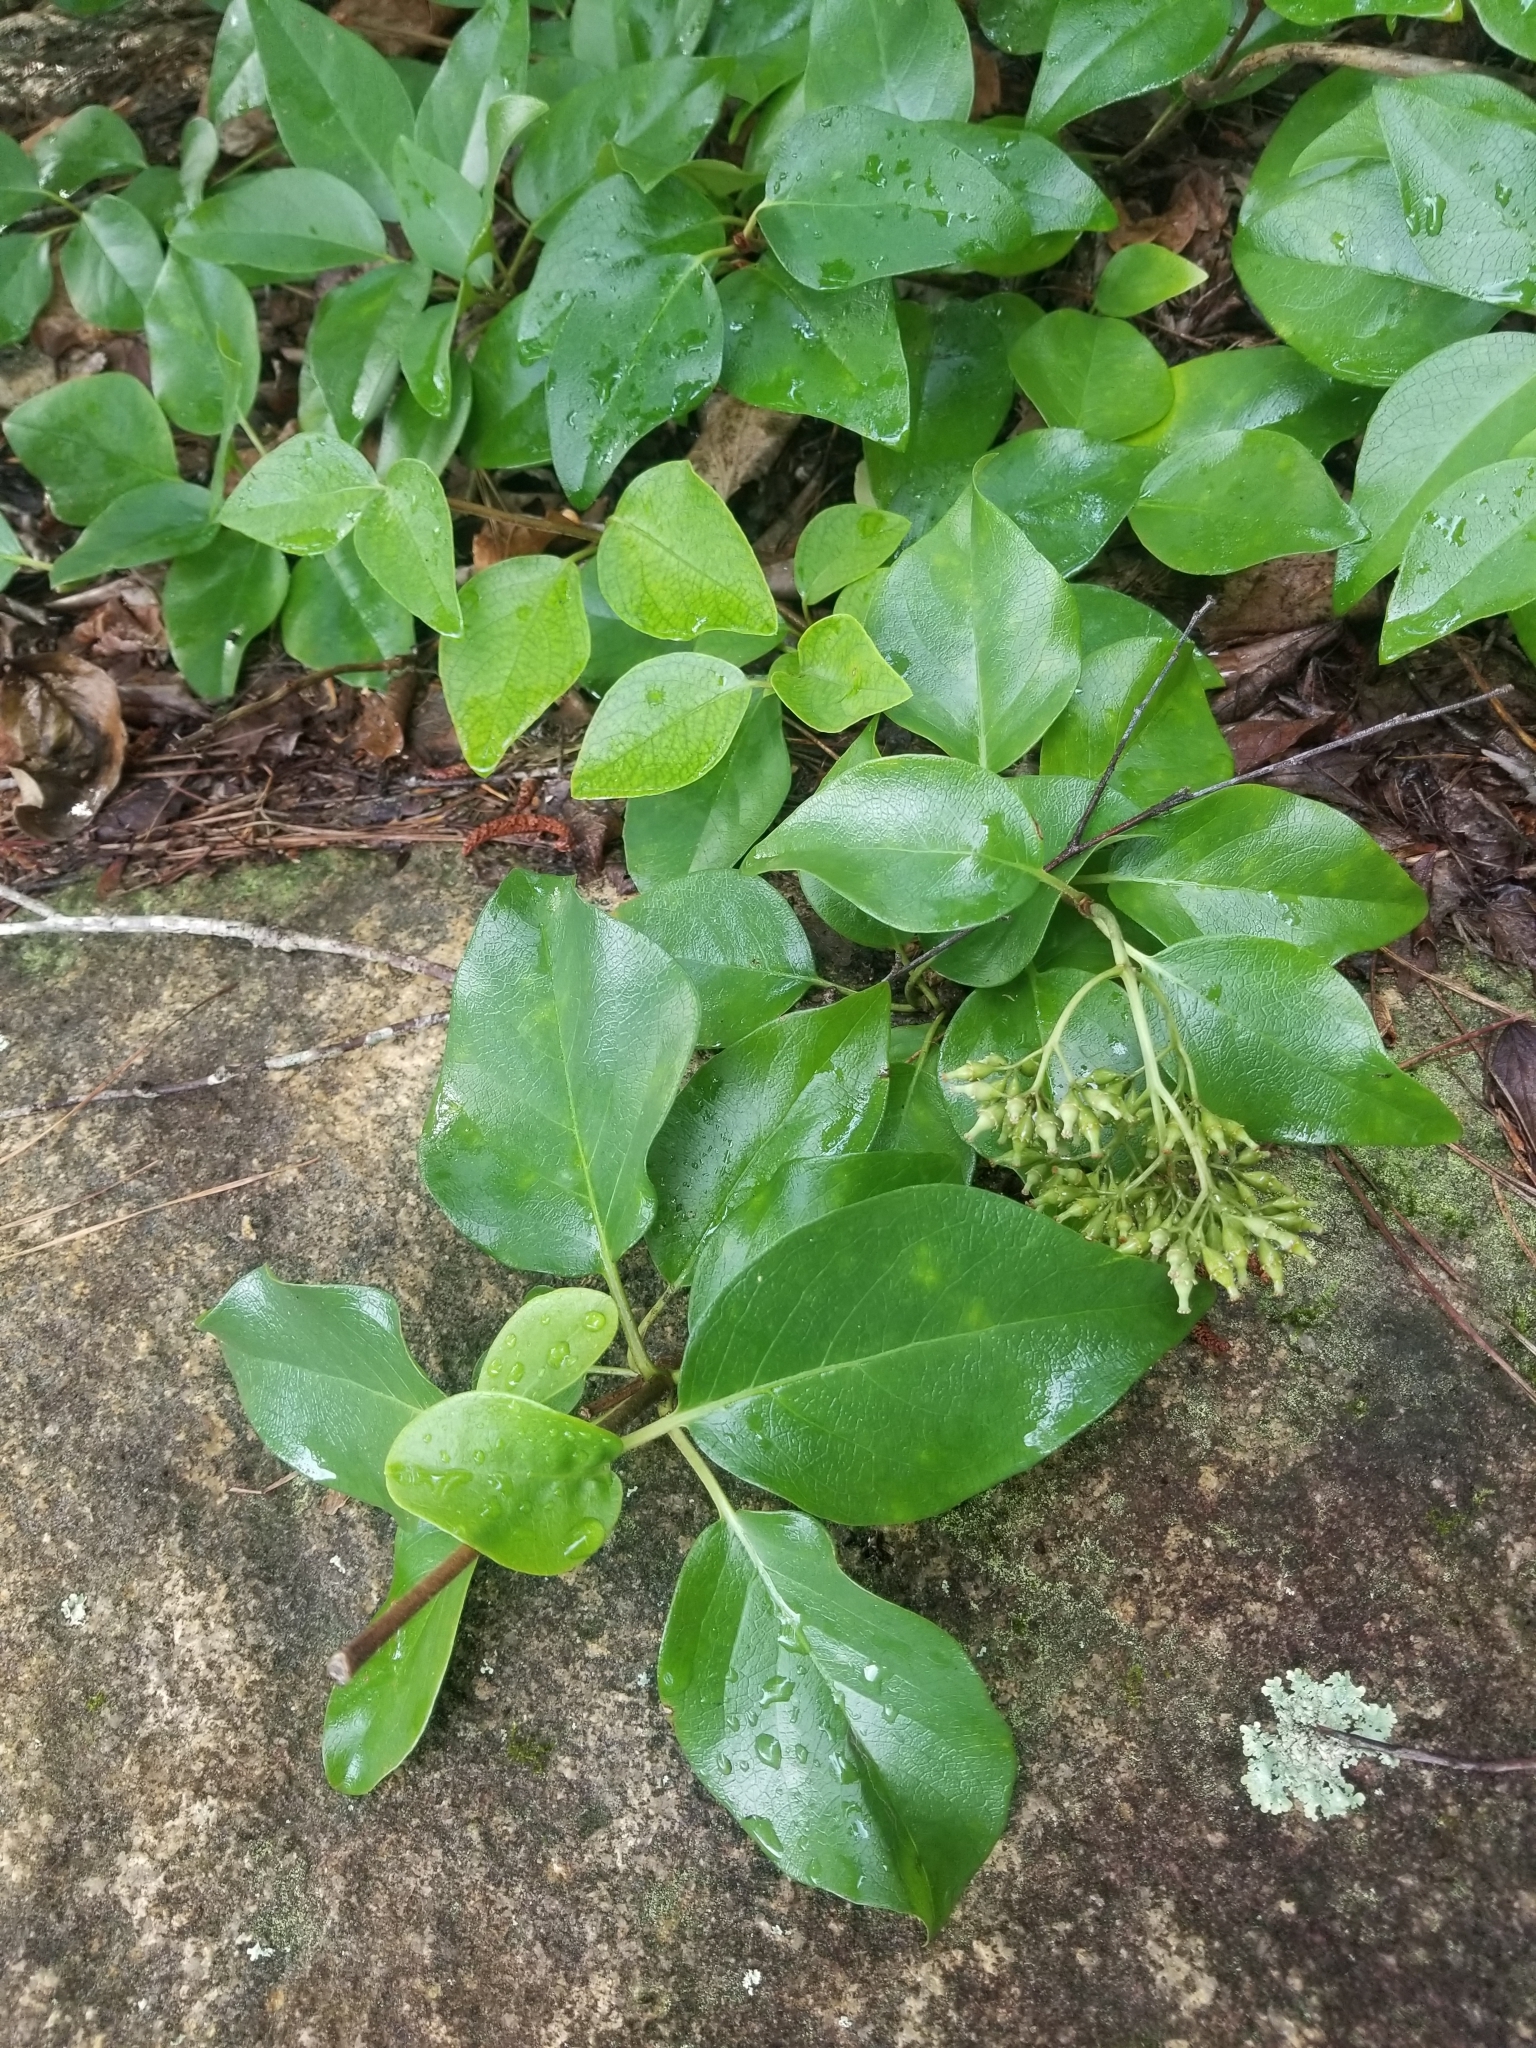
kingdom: Plantae
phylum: Tracheophyta
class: Magnoliopsida
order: Cornales
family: Hydrangeaceae
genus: Hydrangea
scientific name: Hydrangea barbara
